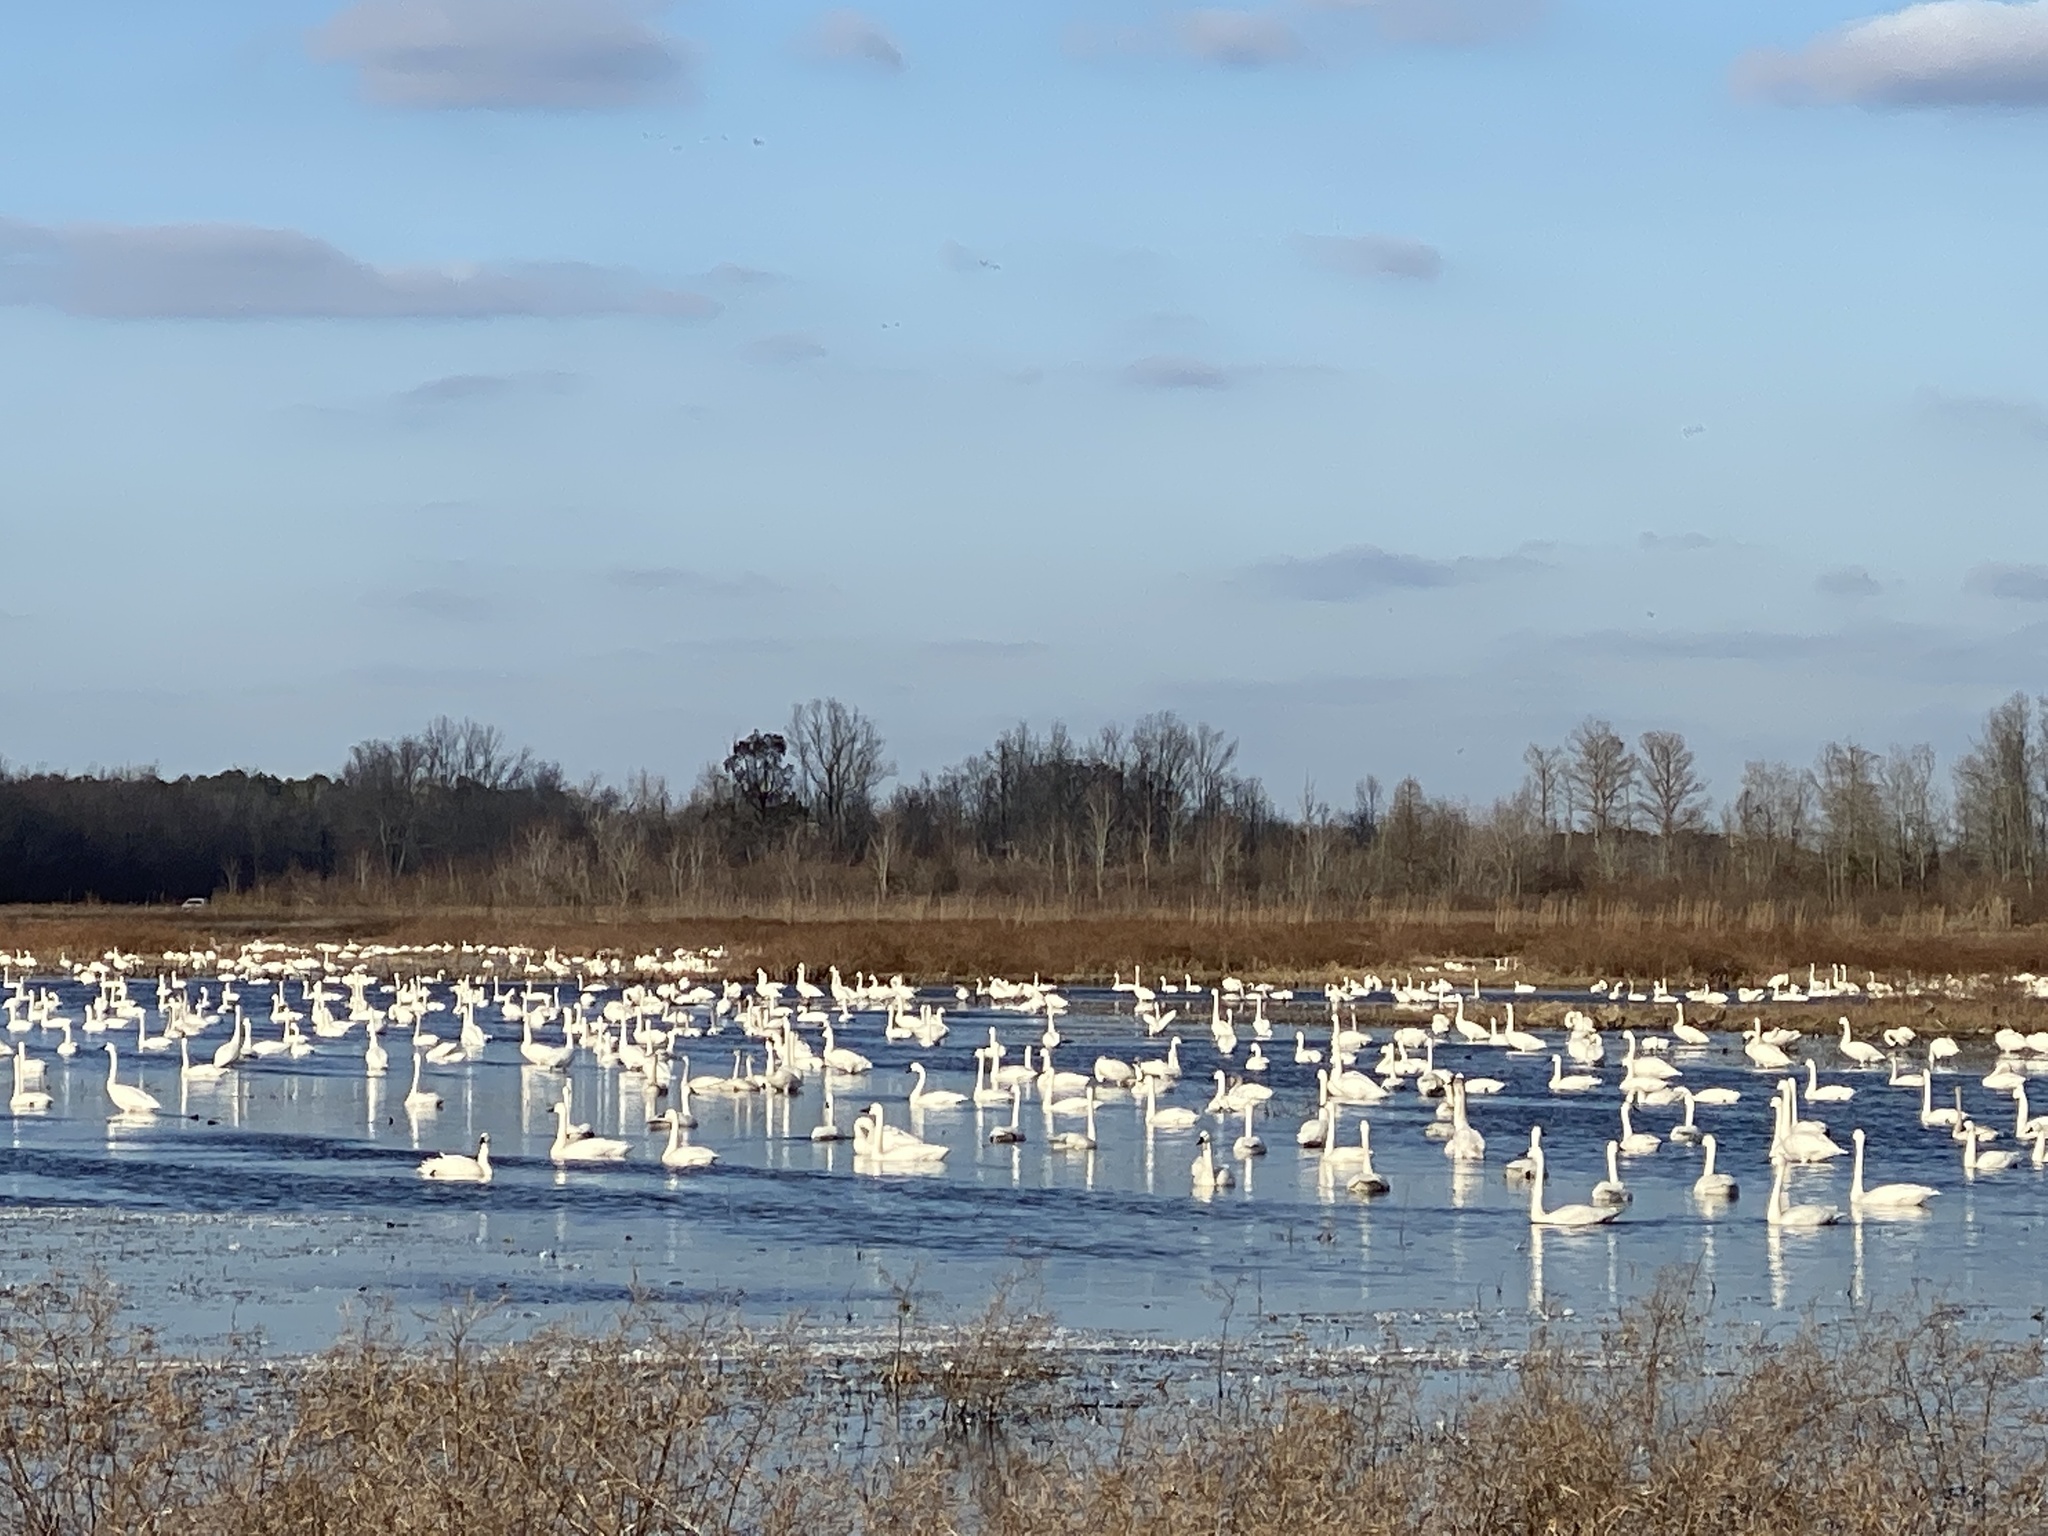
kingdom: Animalia
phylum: Chordata
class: Aves
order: Anseriformes
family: Anatidae
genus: Cygnus
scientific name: Cygnus columbianus
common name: Tundra swan
